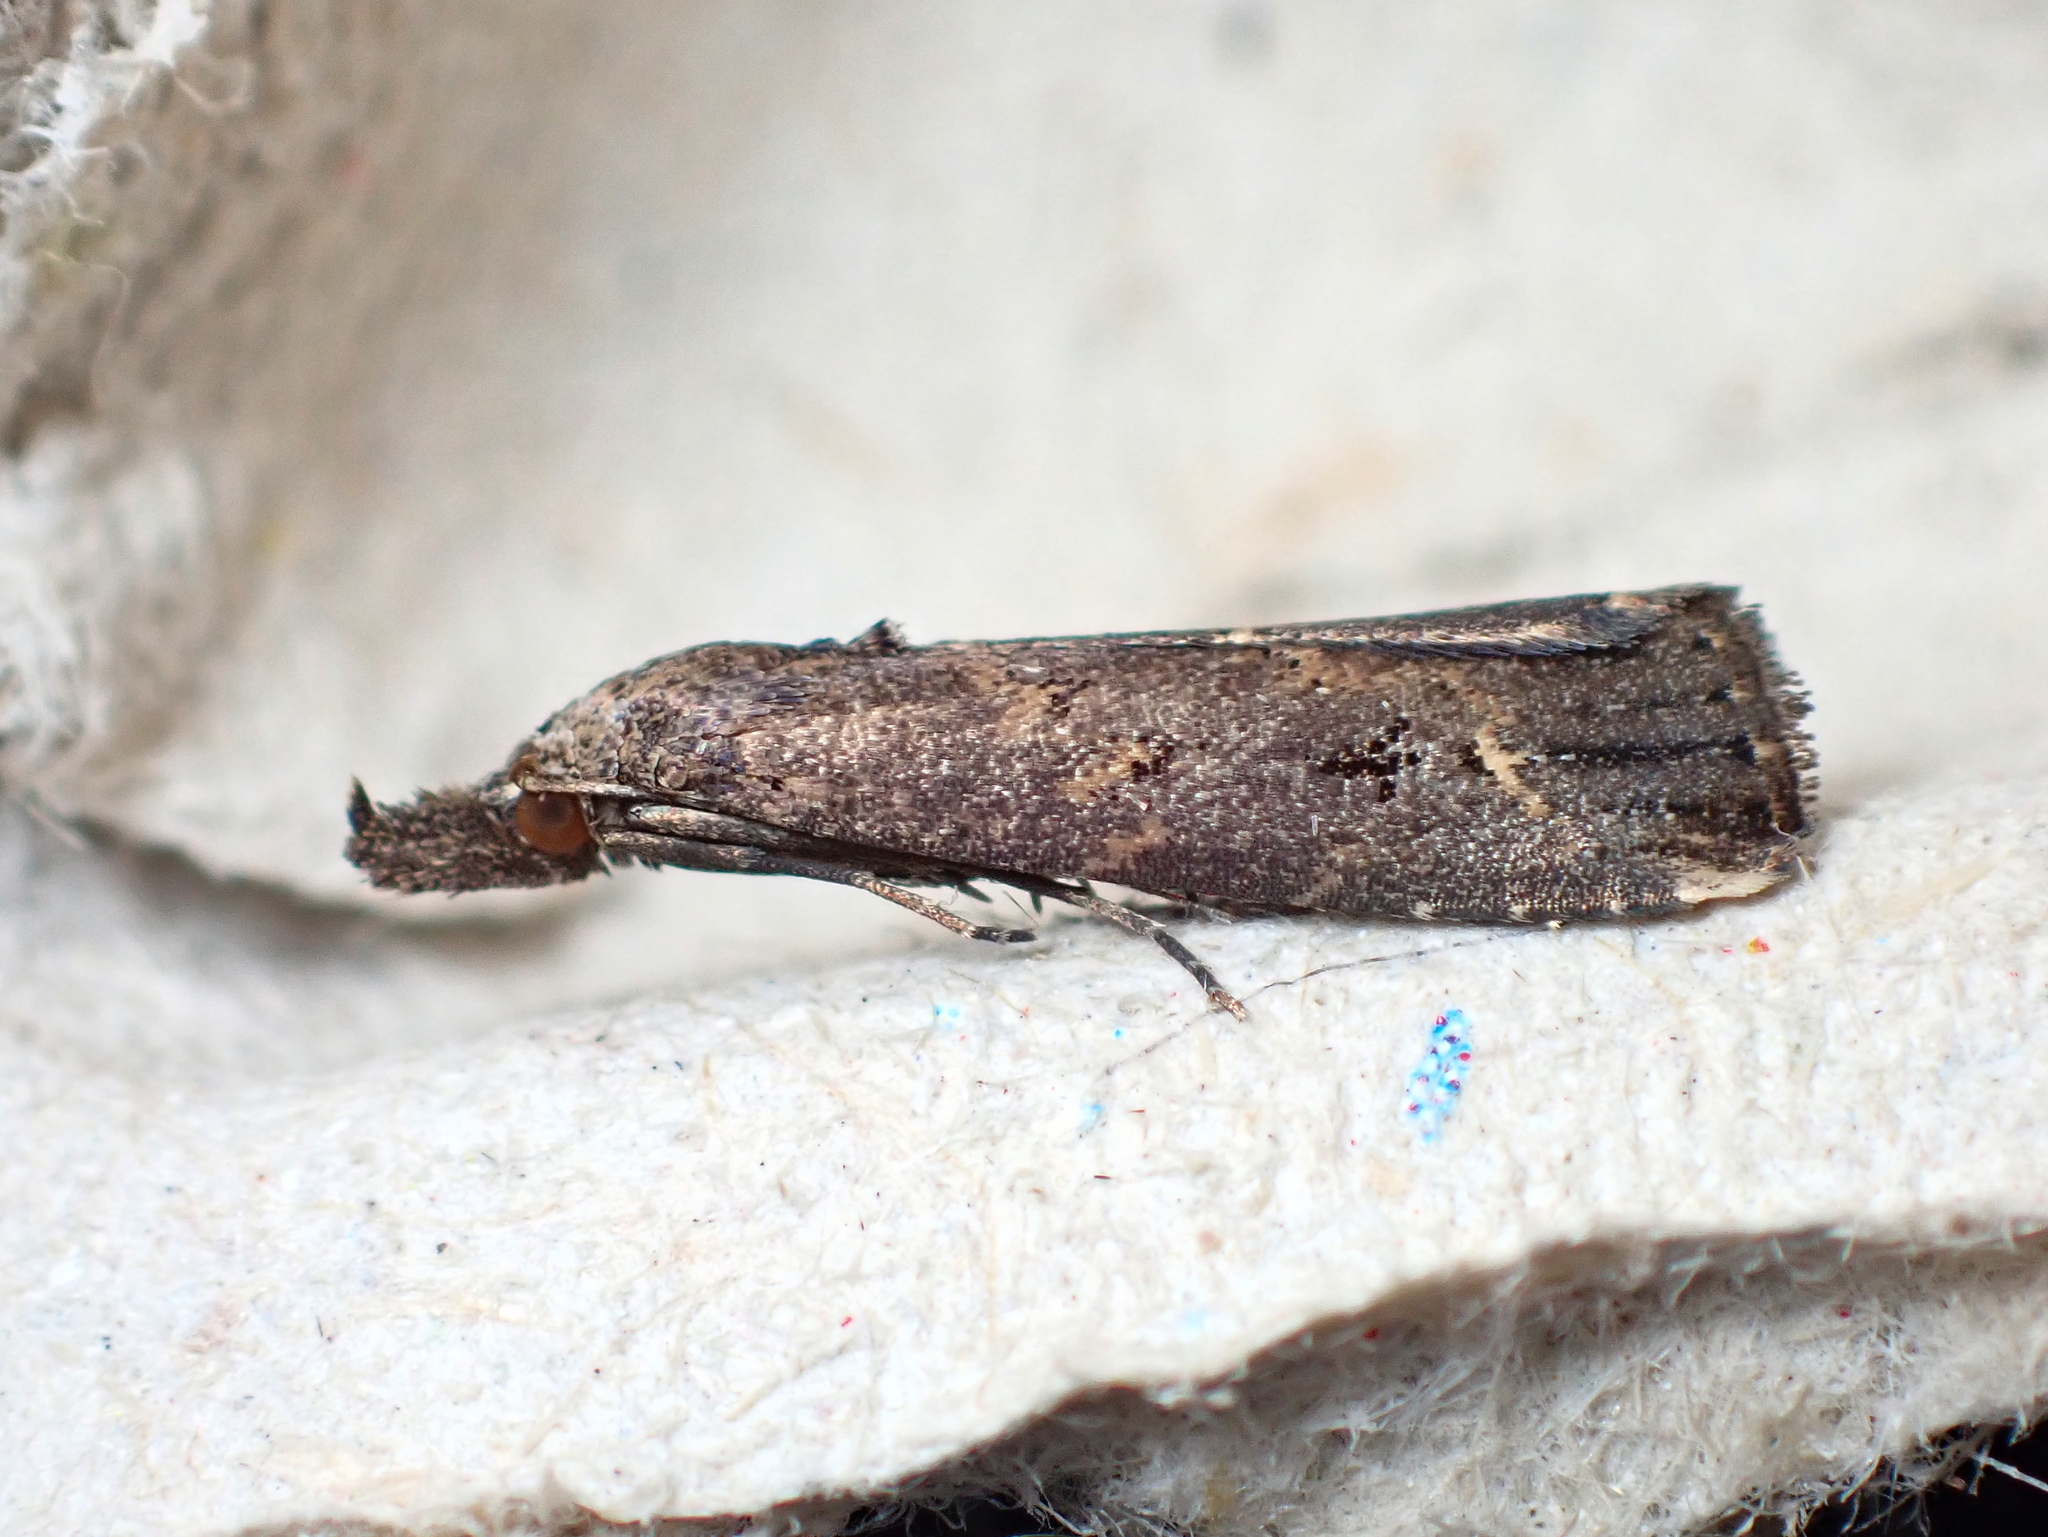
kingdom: Animalia
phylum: Arthropoda
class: Insecta
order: Lepidoptera
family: Erebidae
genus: Schrankia
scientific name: Schrankia costaestrigalis
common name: Pinion-streaked snout
